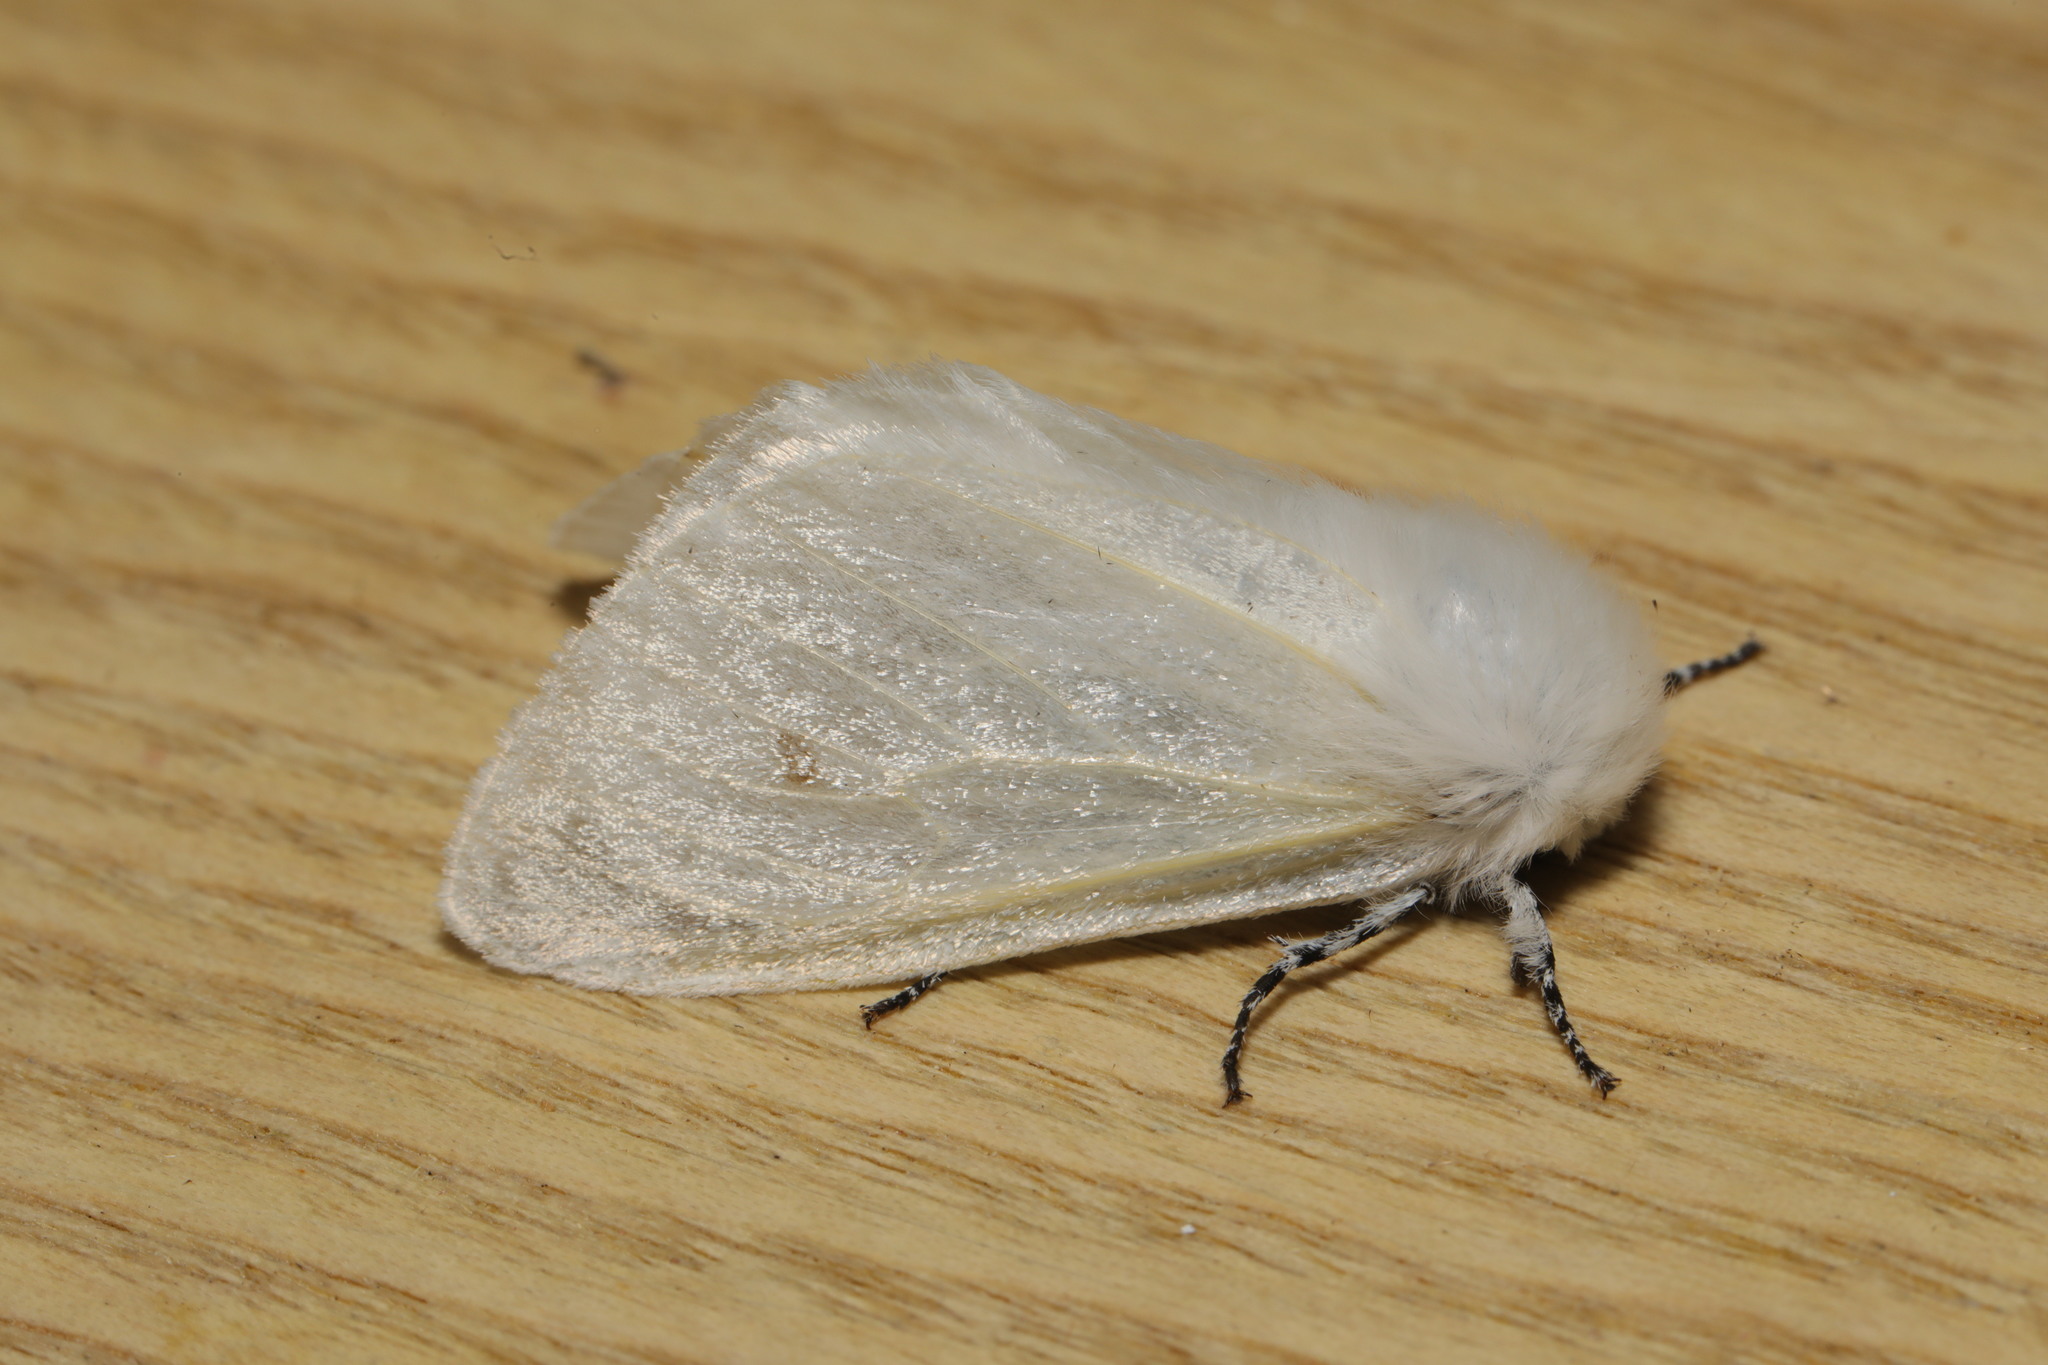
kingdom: Animalia
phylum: Arthropoda
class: Insecta
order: Lepidoptera
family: Erebidae
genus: Leucoma
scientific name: Leucoma salicis
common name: White satin moth
